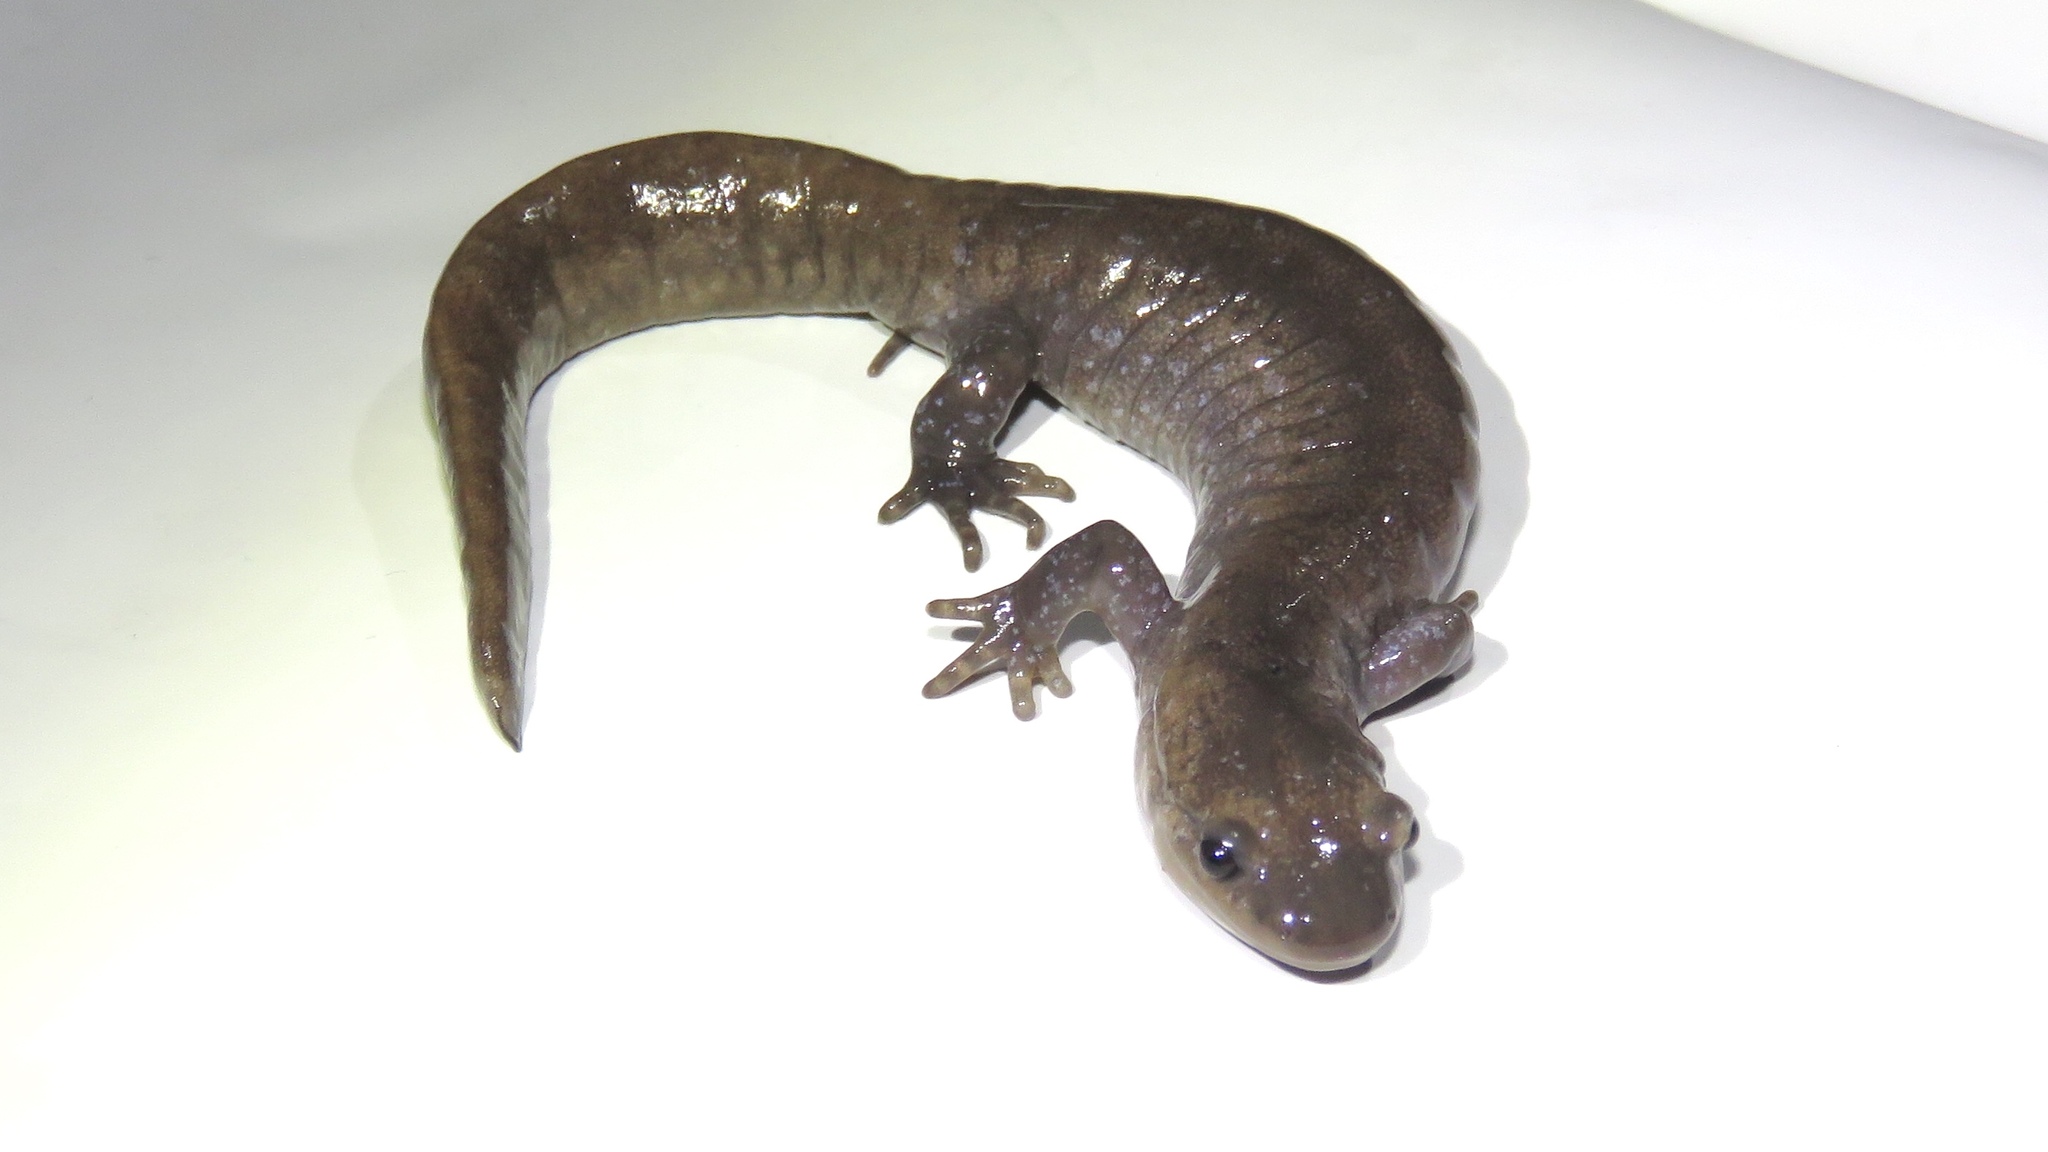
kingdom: Animalia
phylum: Chordata
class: Amphibia
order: Caudata
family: Ambystomatidae
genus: Ambystoma
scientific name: Ambystoma unisexual
